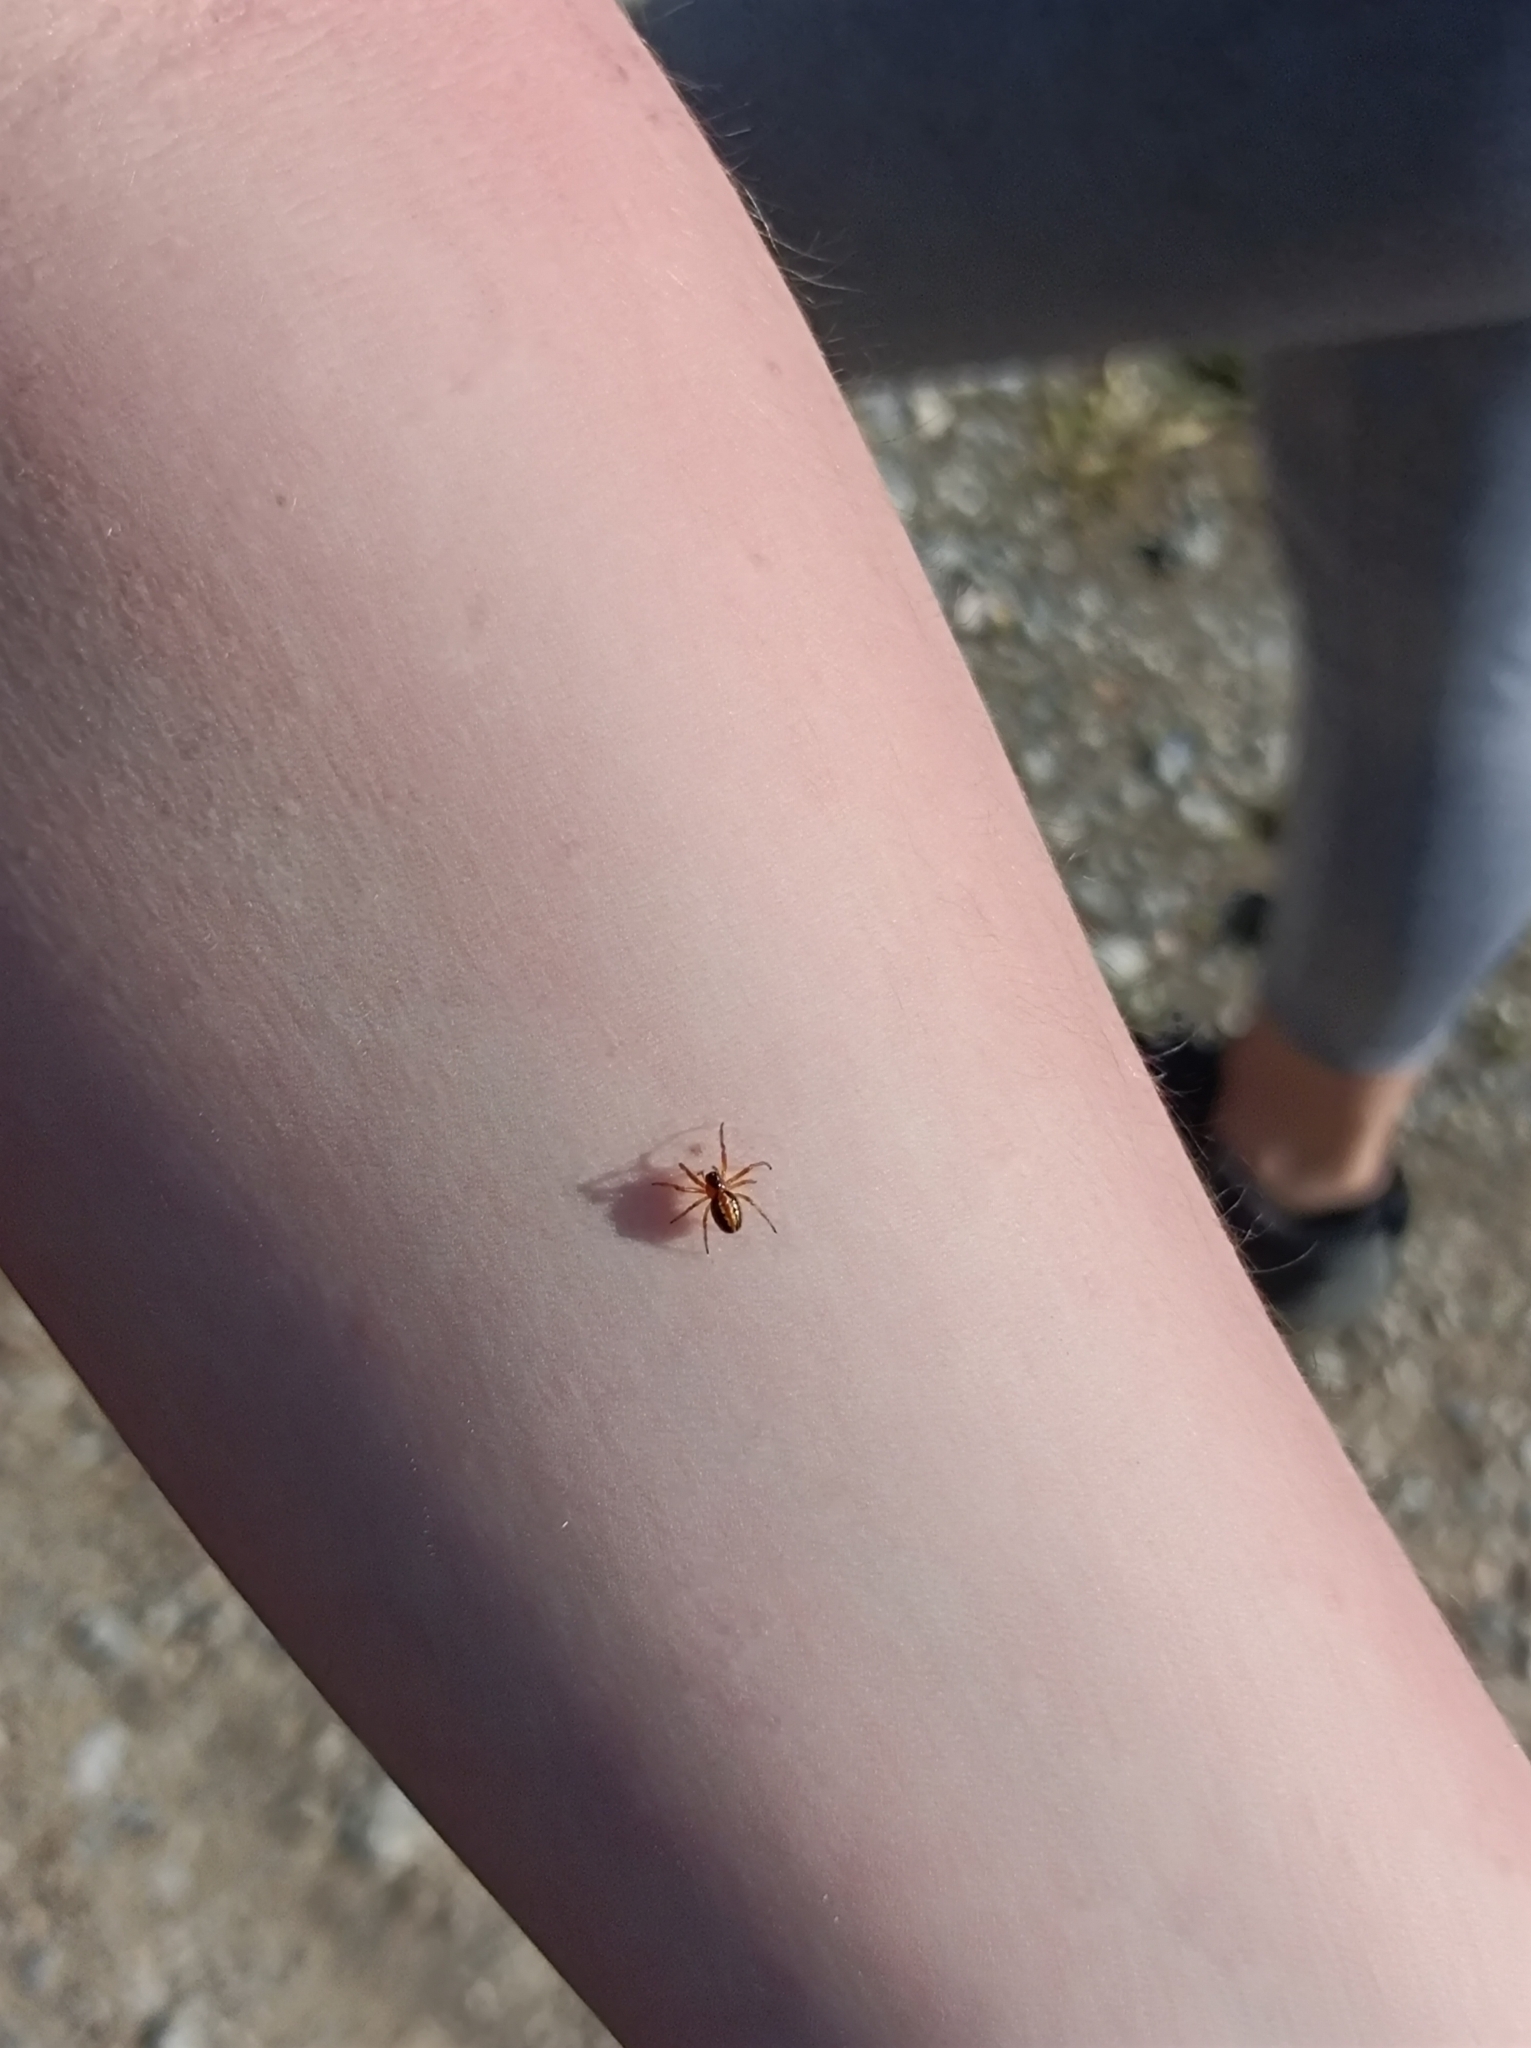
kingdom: Animalia
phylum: Arthropoda
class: Arachnida
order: Araneae
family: Araneidae
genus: Hypsosinga
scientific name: Hypsosinga heri
